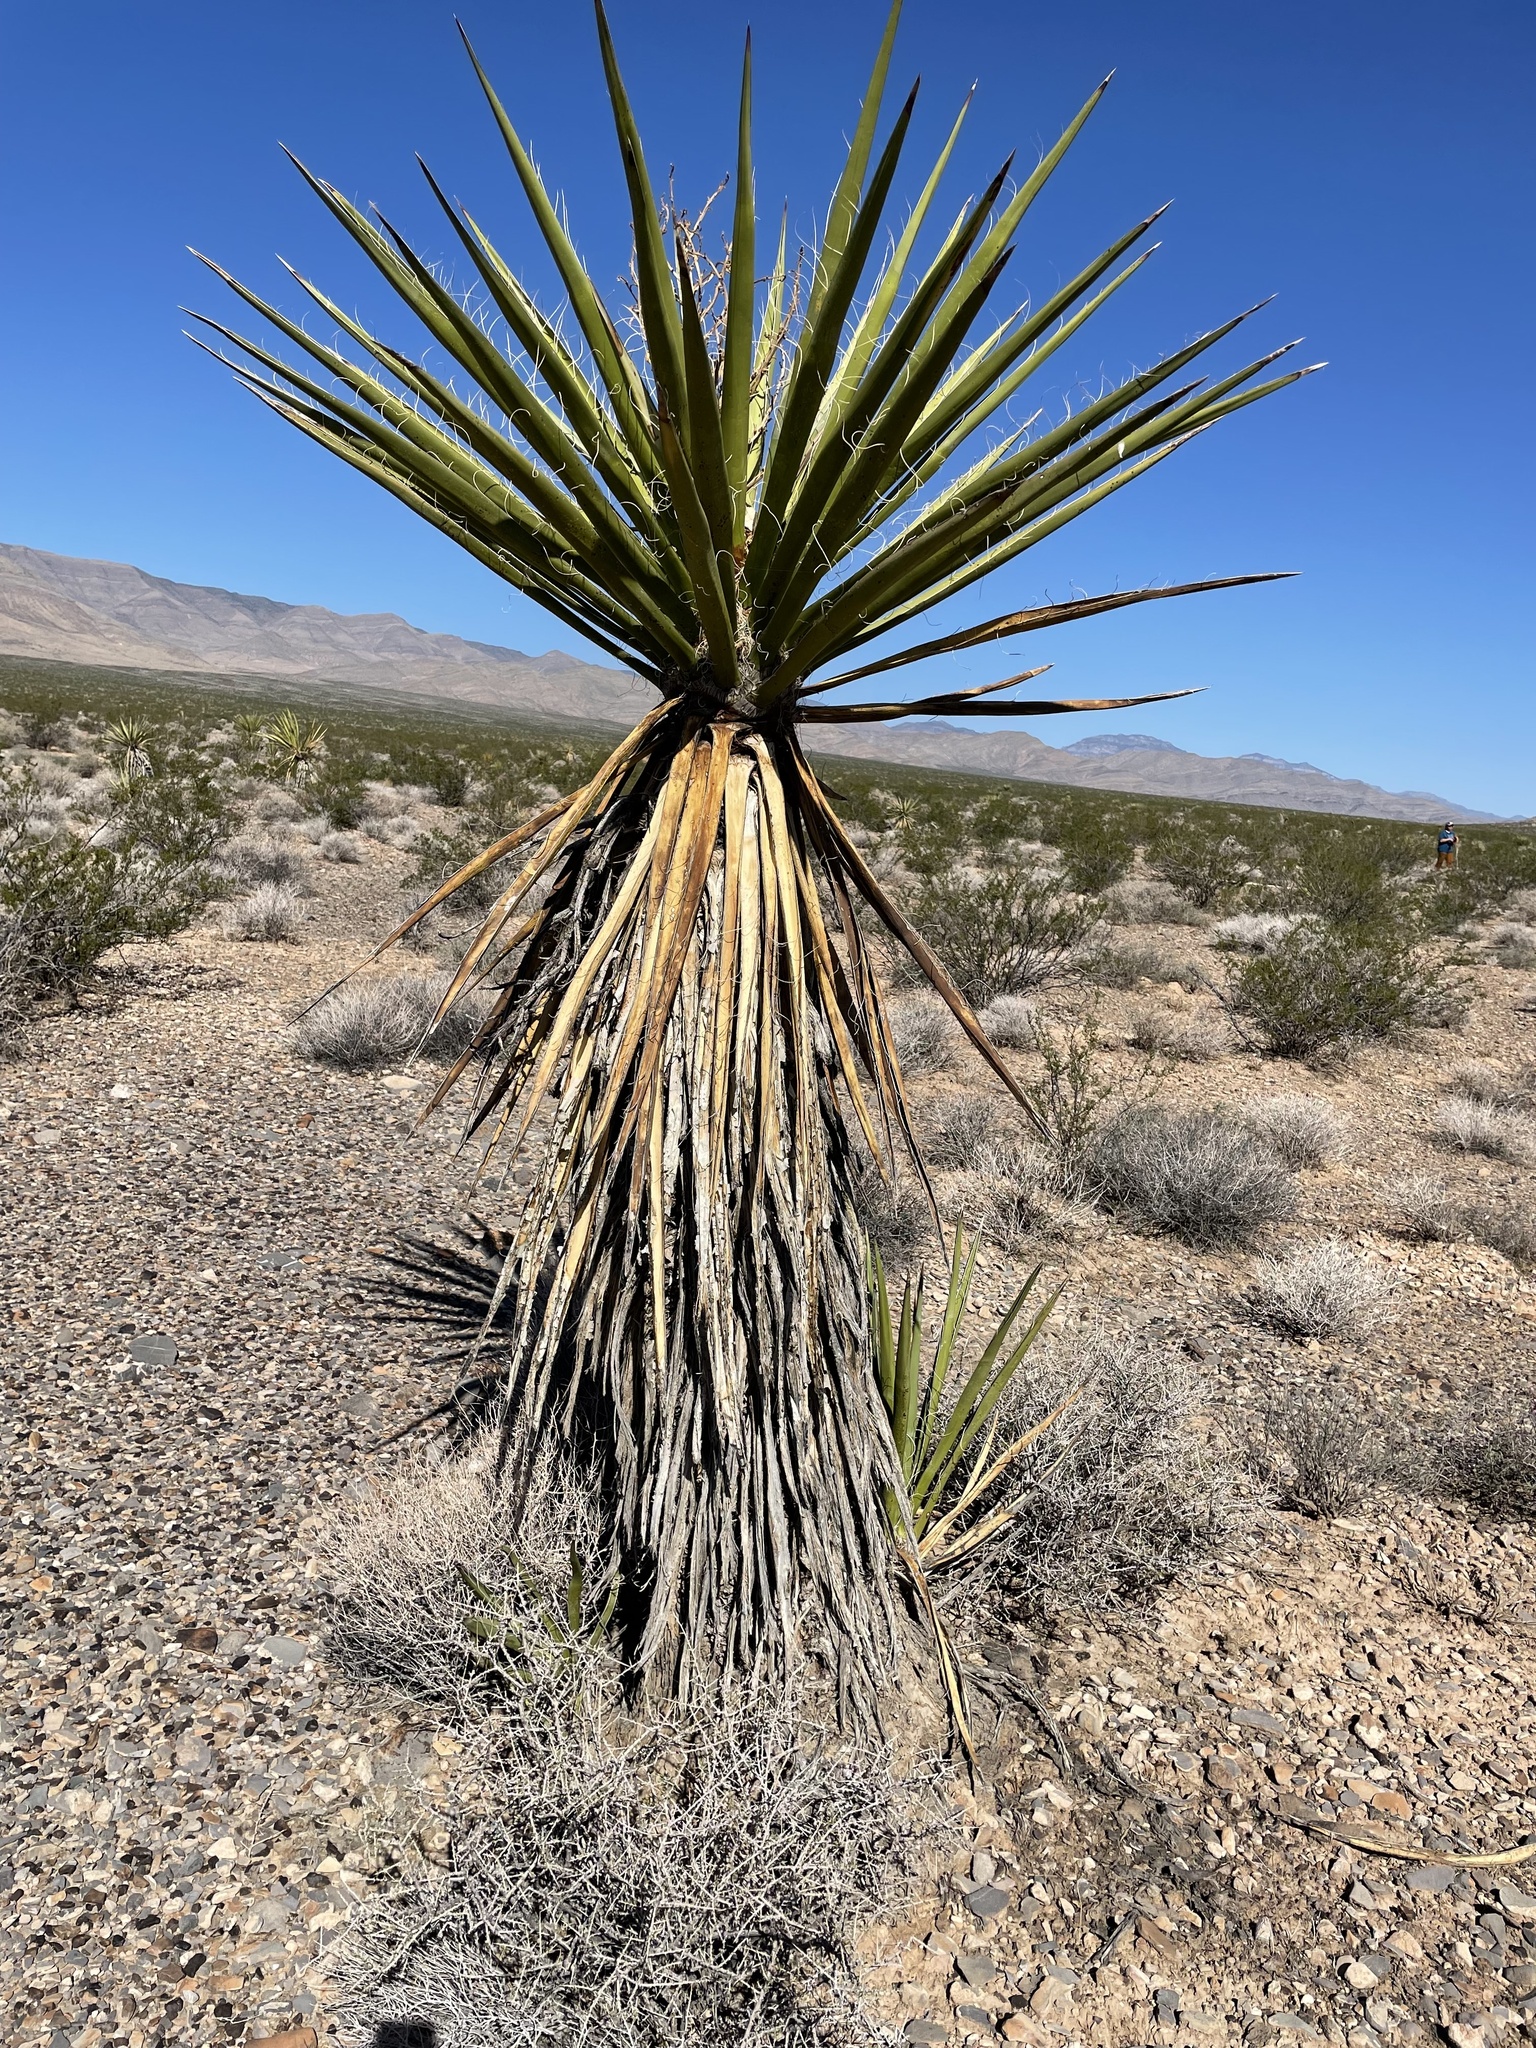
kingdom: Plantae
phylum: Tracheophyta
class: Liliopsida
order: Asparagales
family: Asparagaceae
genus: Yucca
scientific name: Yucca schidigera
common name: Mojave yucca
